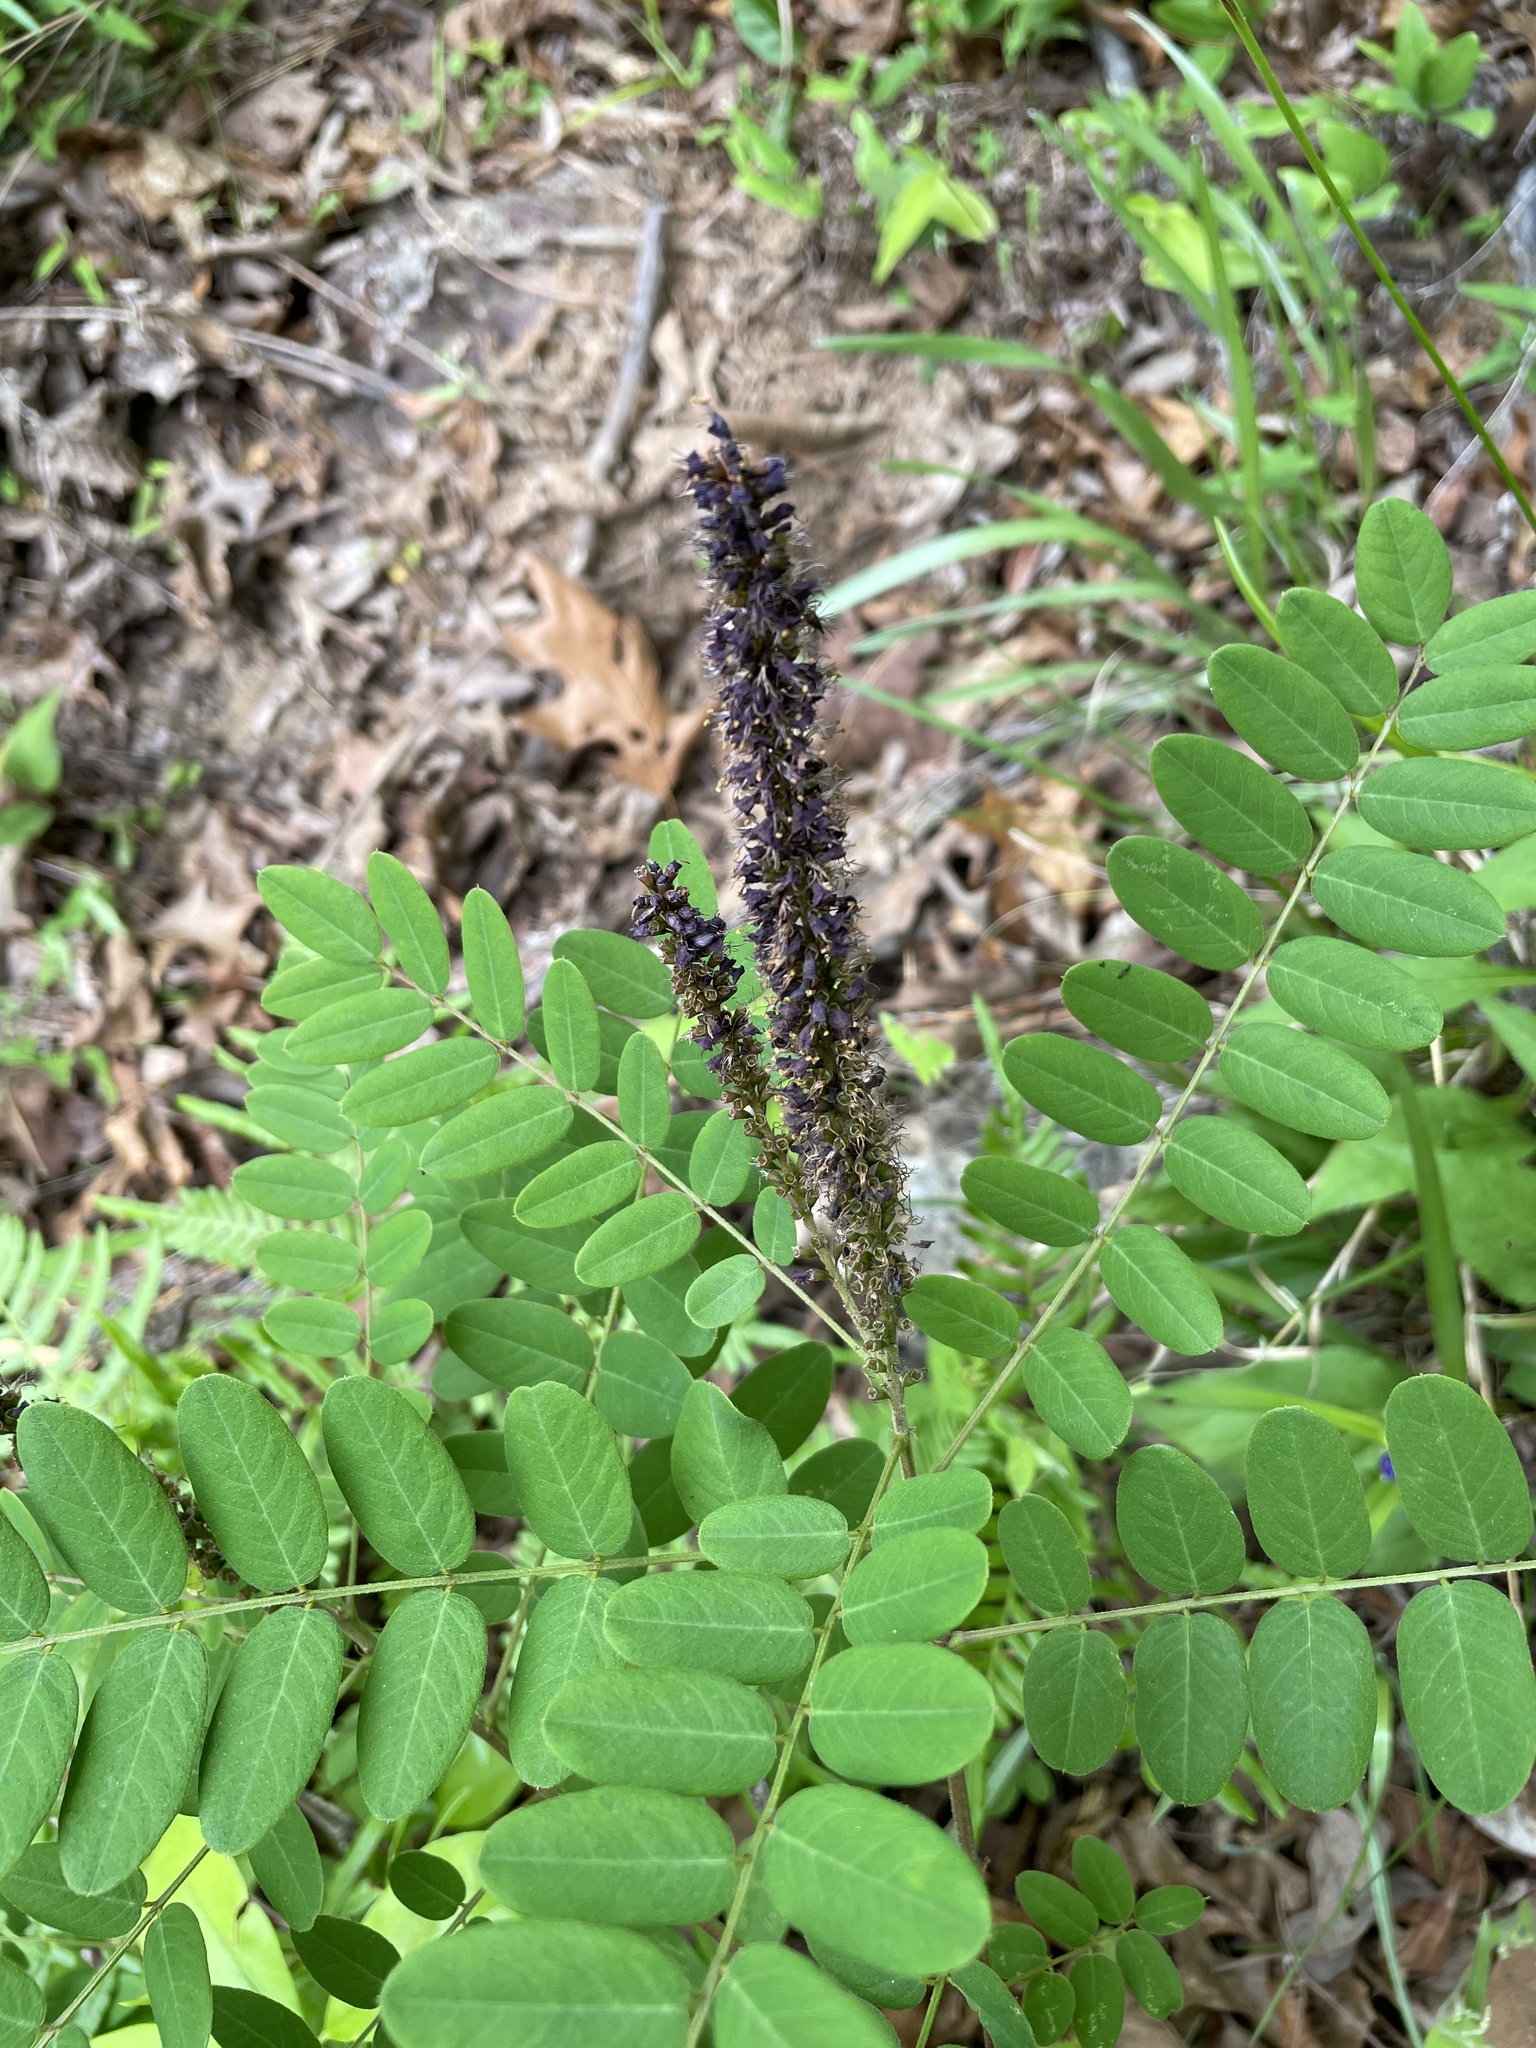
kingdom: Plantae
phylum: Tracheophyta
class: Magnoliopsida
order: Fabales
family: Fabaceae
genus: Amorpha
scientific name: Amorpha fruticosa
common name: False indigo
